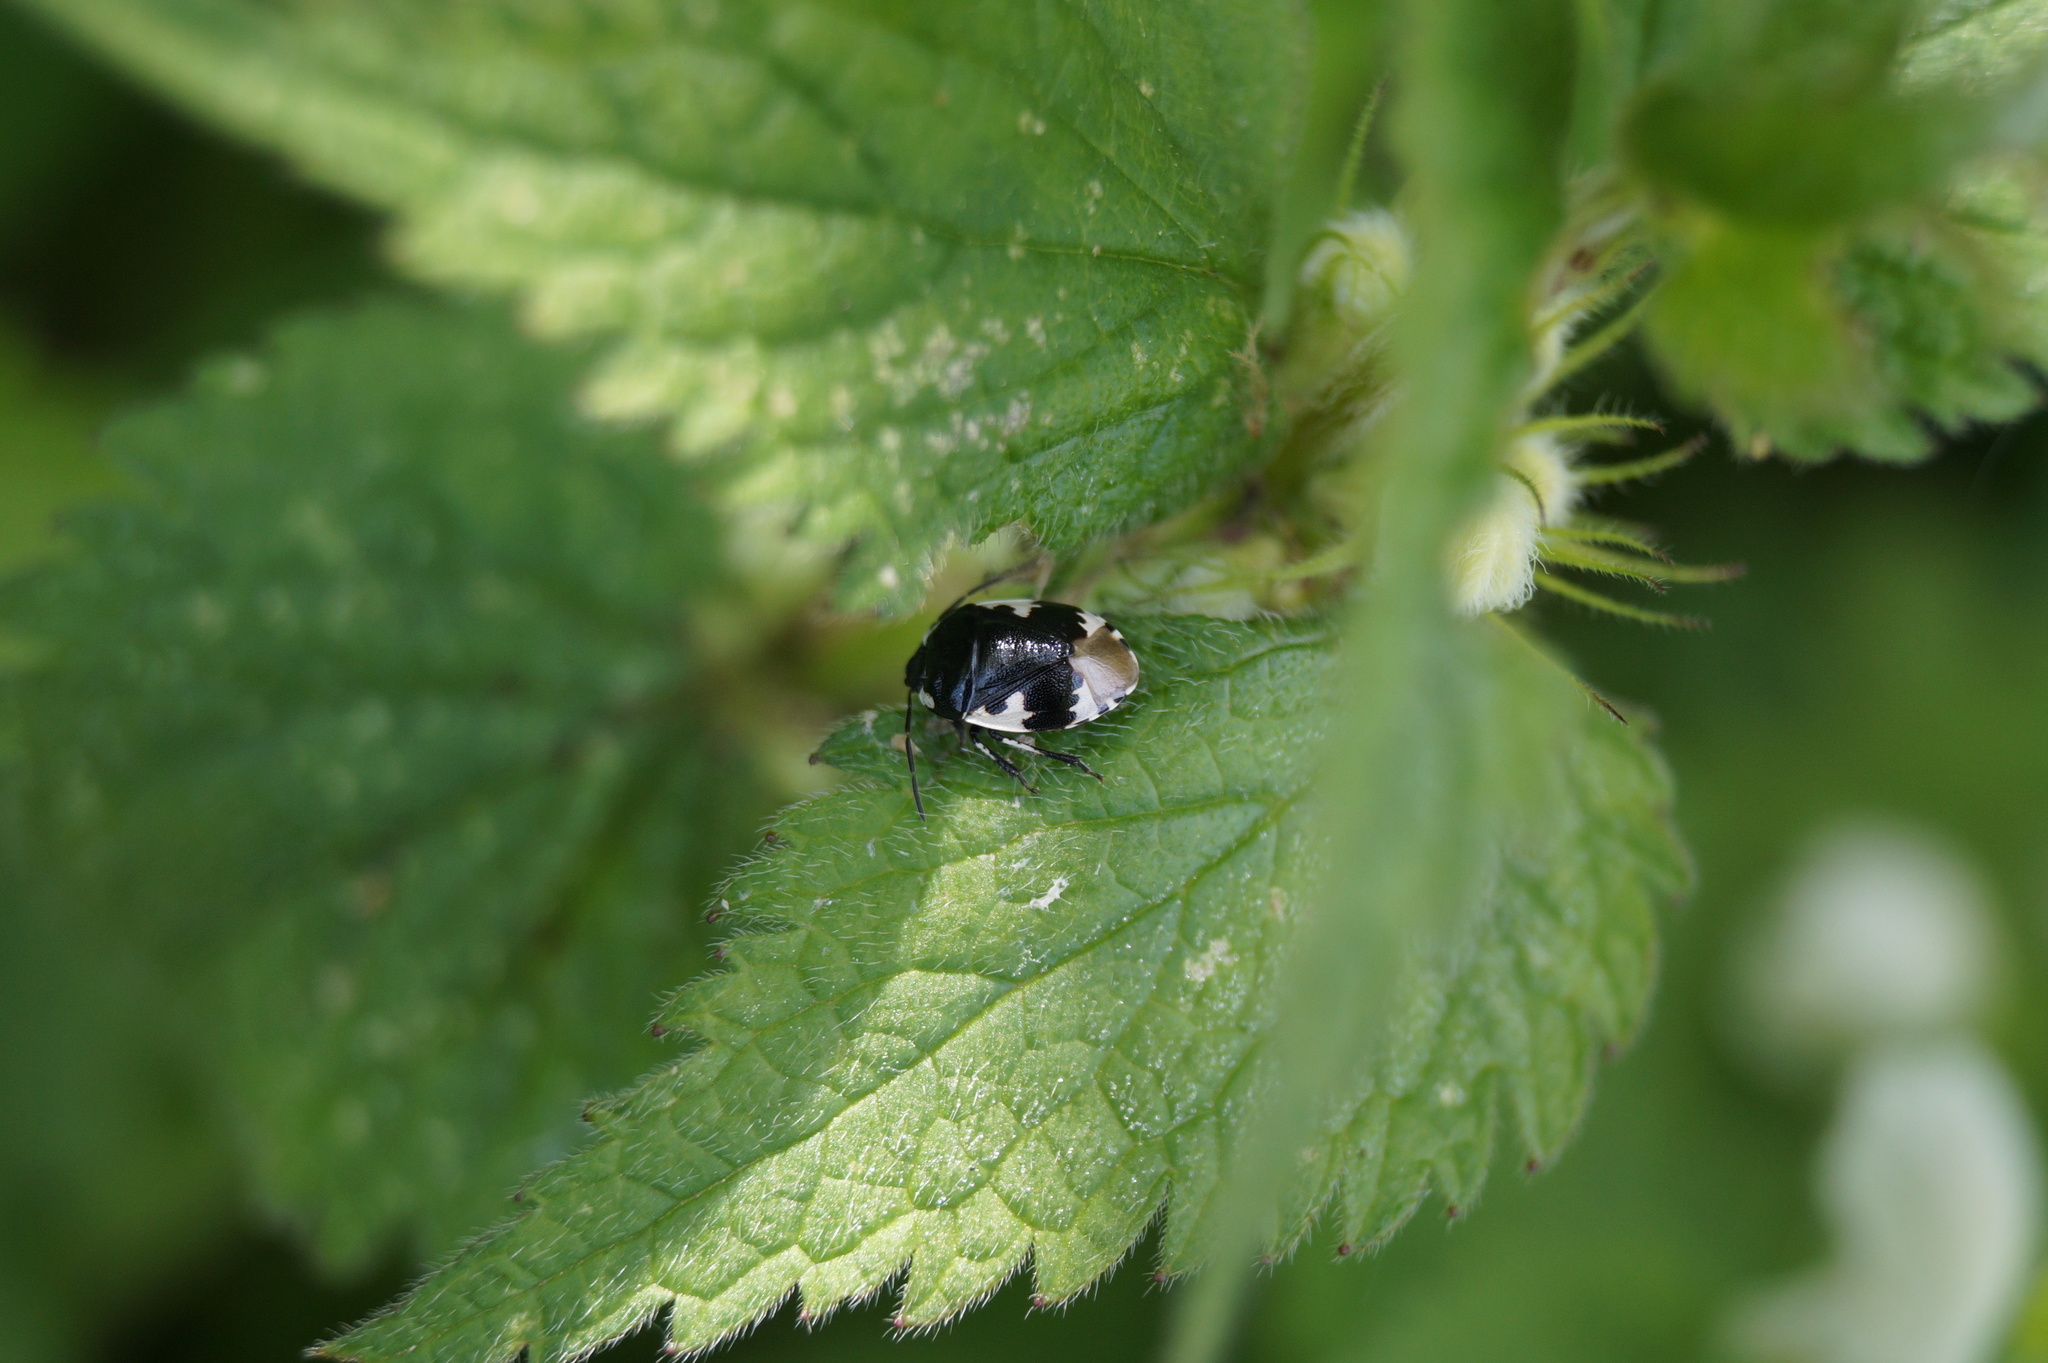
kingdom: Animalia
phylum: Arthropoda
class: Insecta
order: Hemiptera
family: Cydnidae
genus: Tritomegas
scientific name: Tritomegas bicolor
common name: Pied shieldbug
